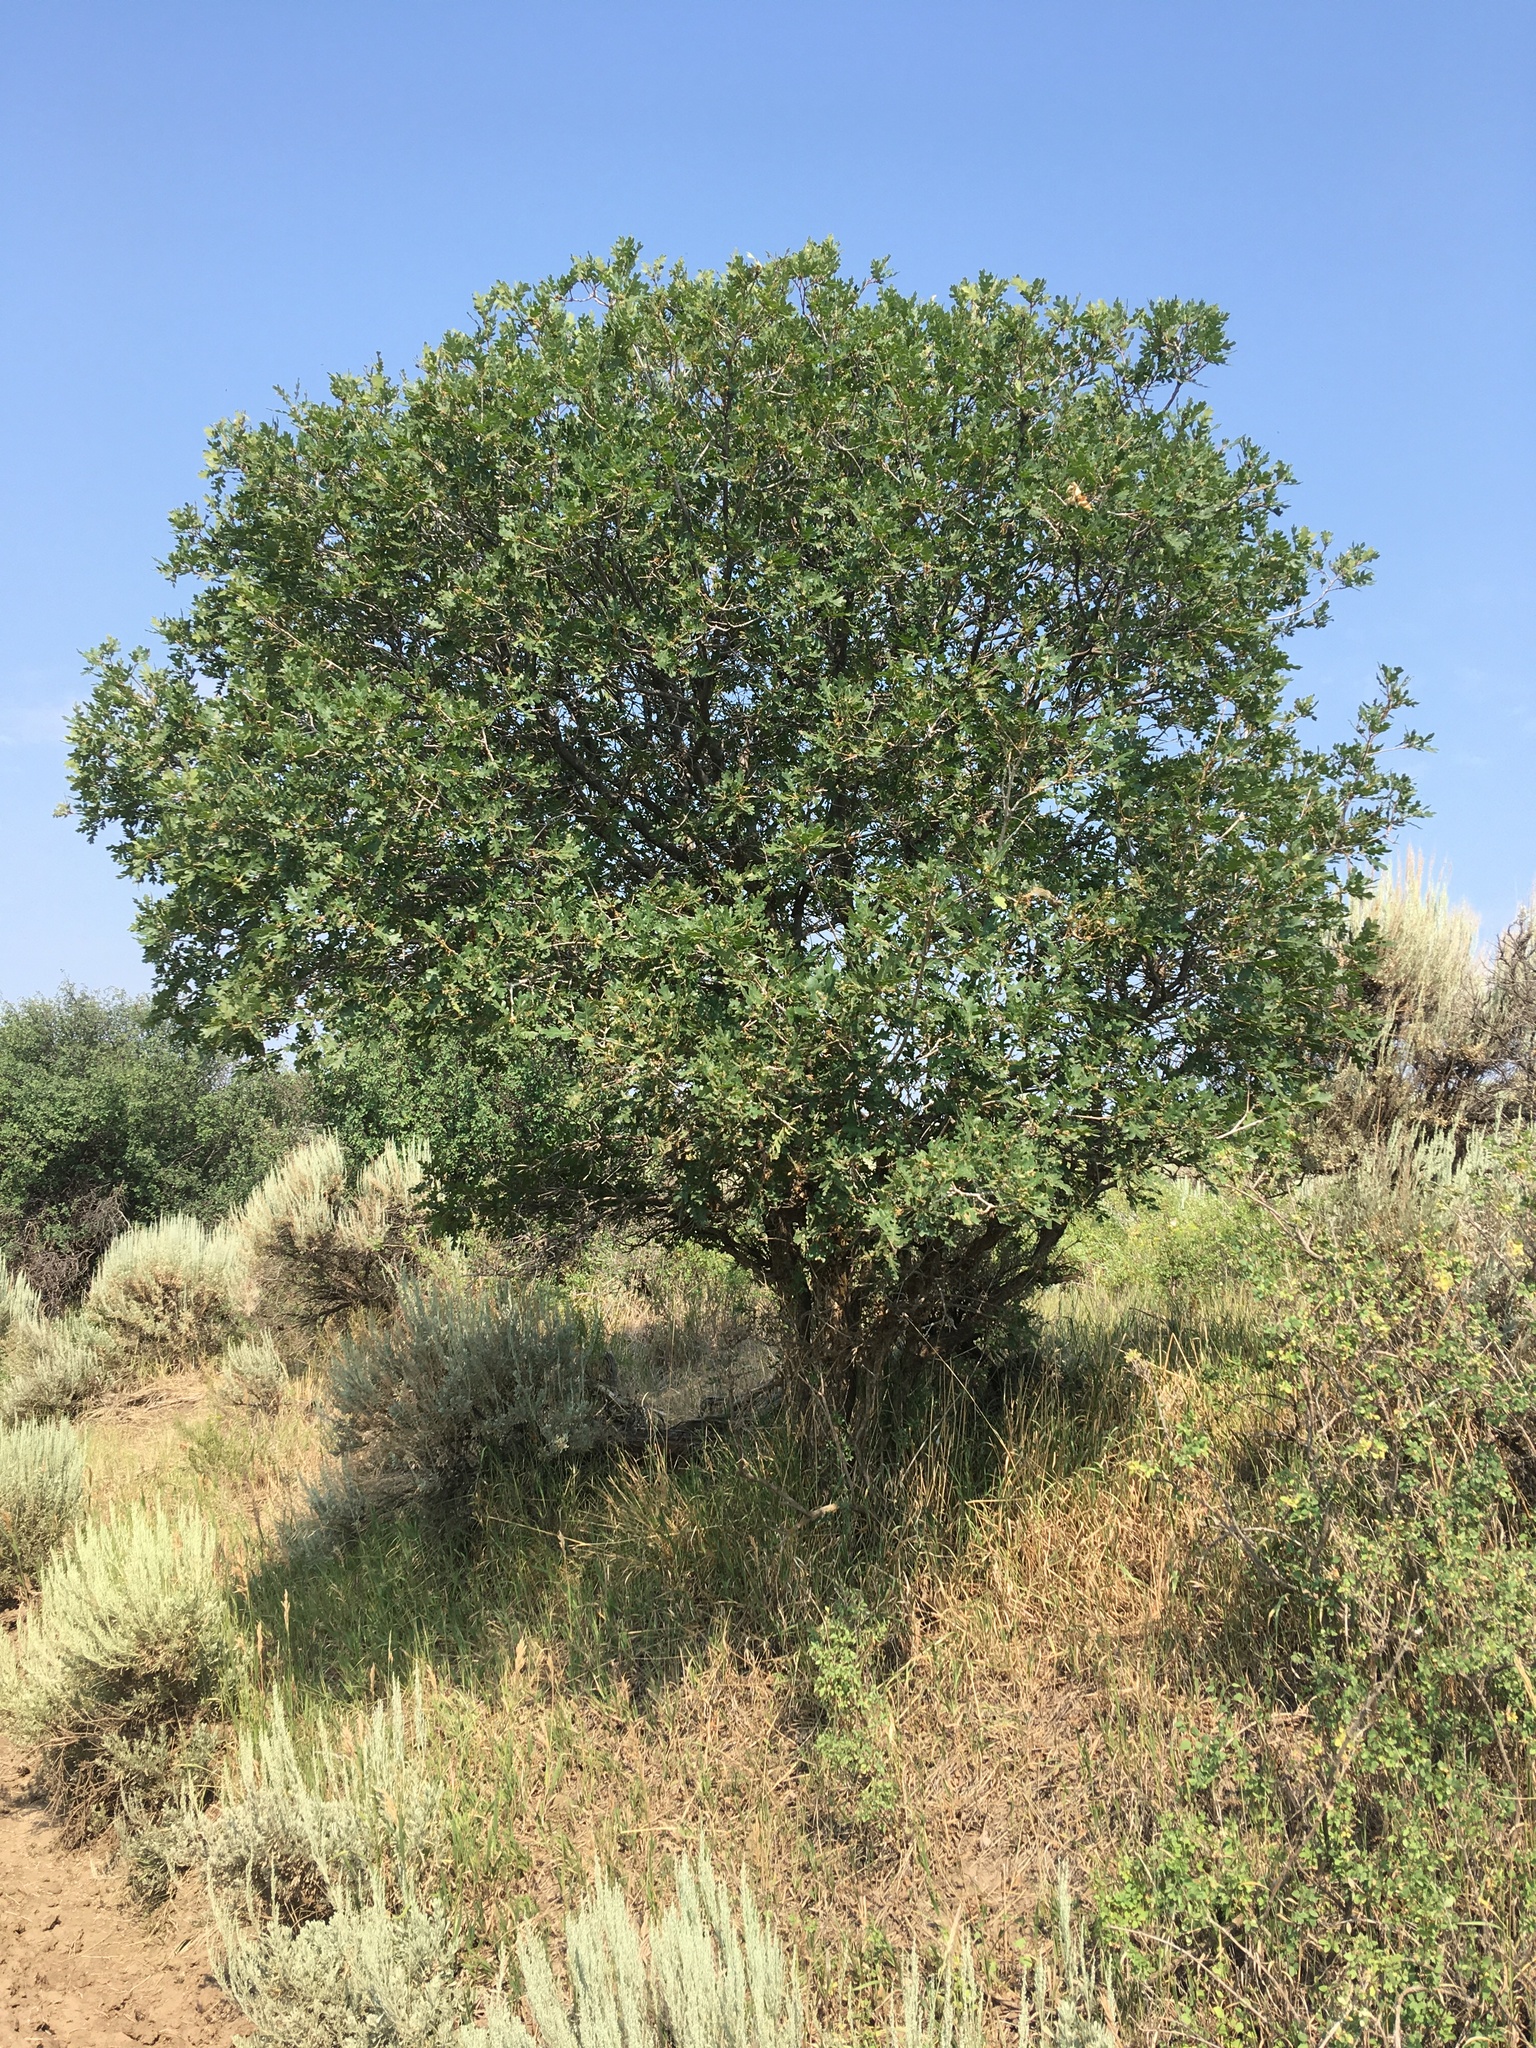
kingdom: Plantae
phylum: Tracheophyta
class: Magnoliopsida
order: Fagales
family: Fagaceae
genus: Quercus
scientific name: Quercus gambelii
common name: Gambel oak
